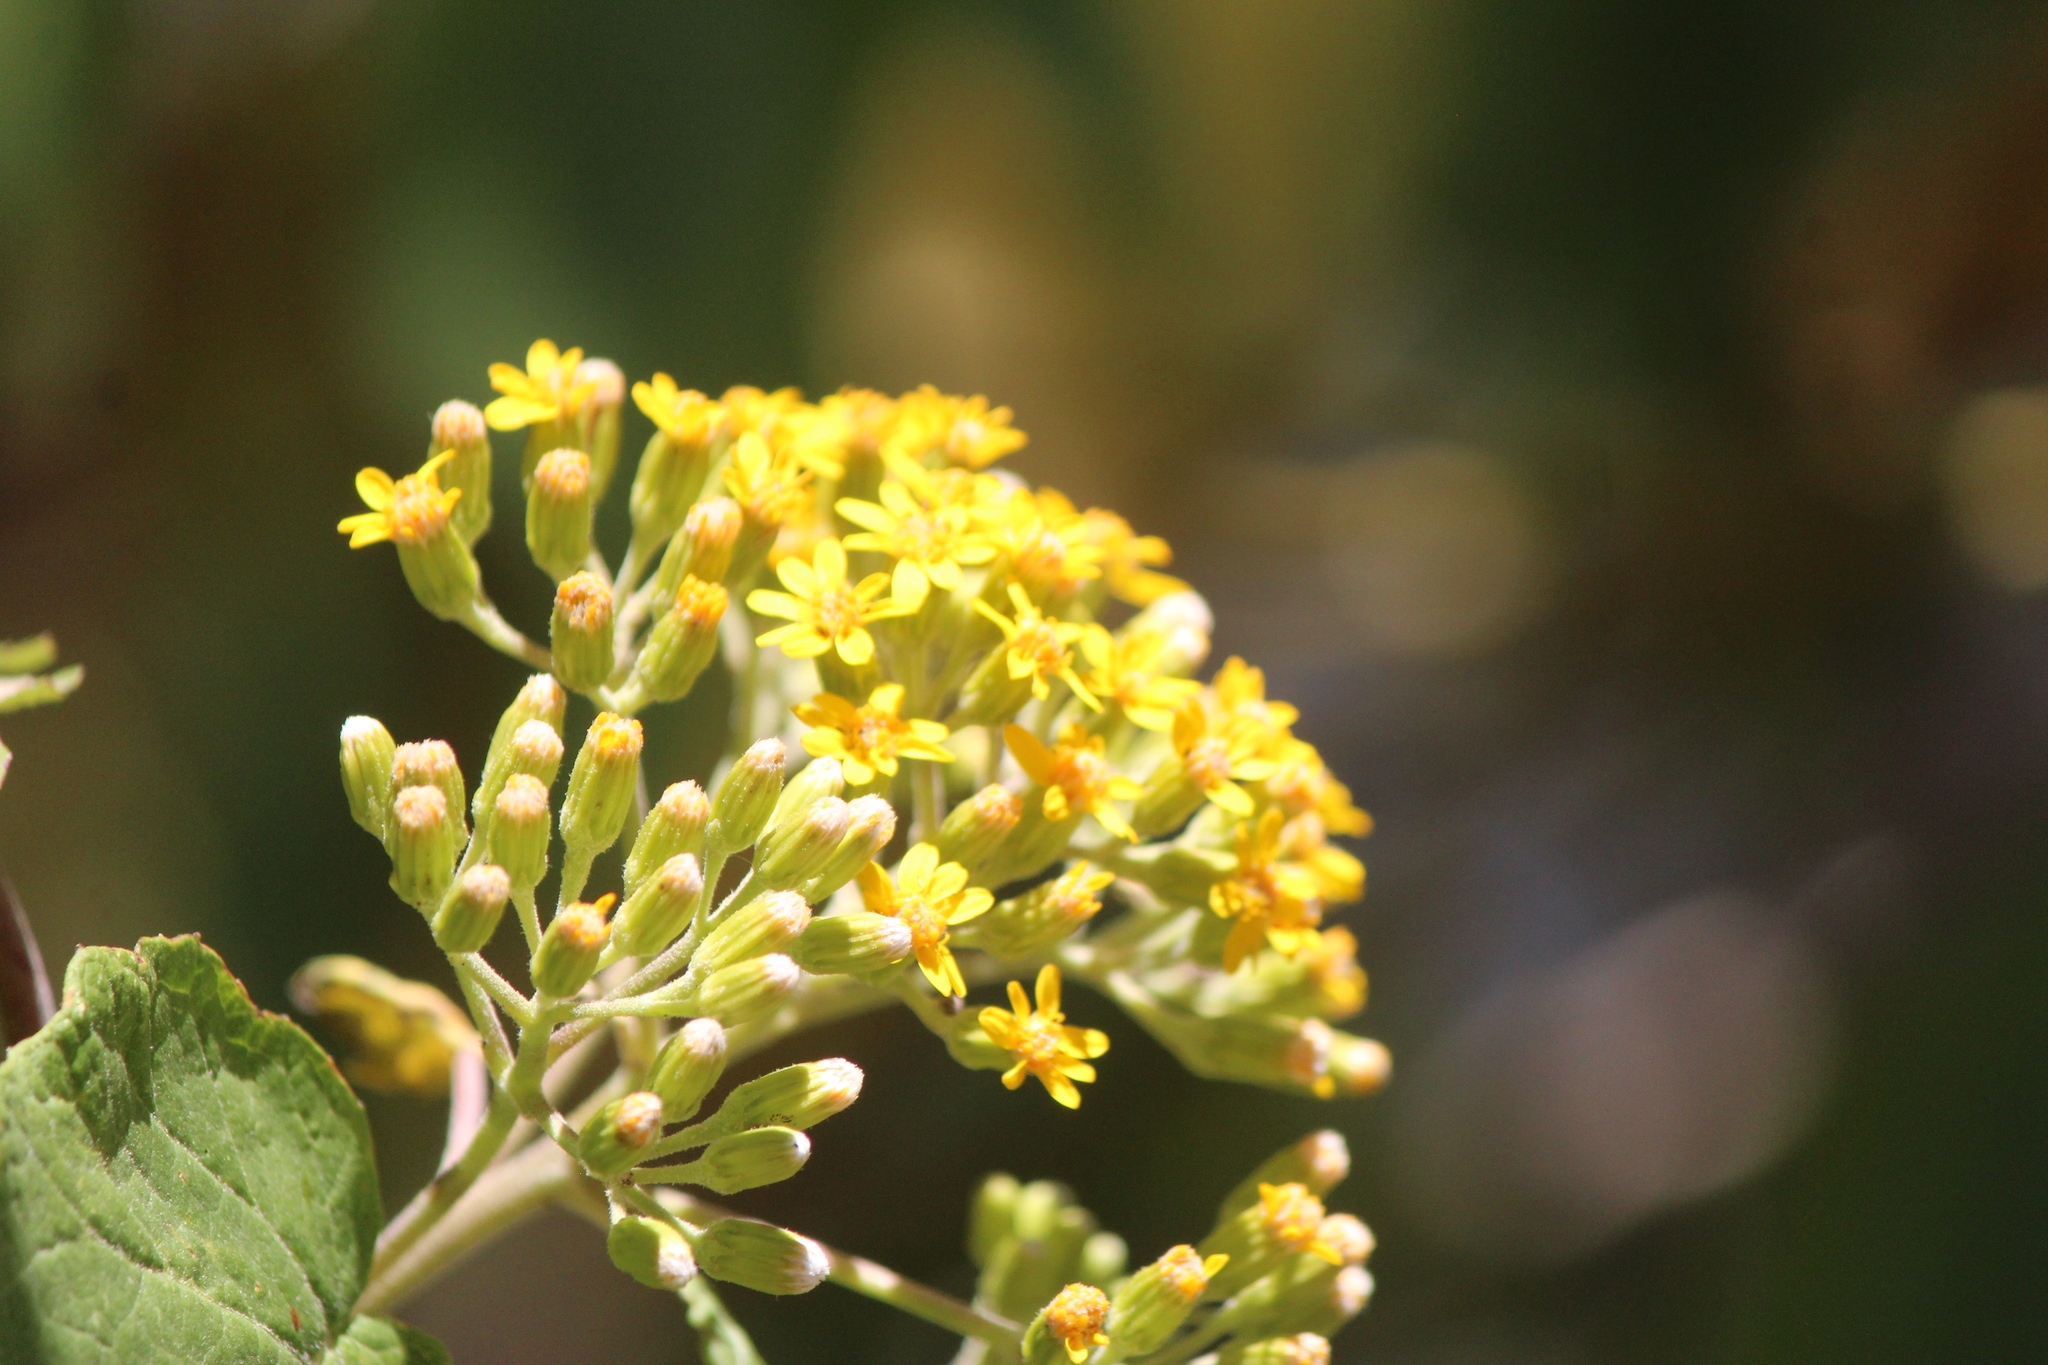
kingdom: Plantae
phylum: Tracheophyta
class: Magnoliopsida
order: Asterales
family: Asteraceae
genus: Roldana
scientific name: Roldana petasitis
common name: California-geranium
